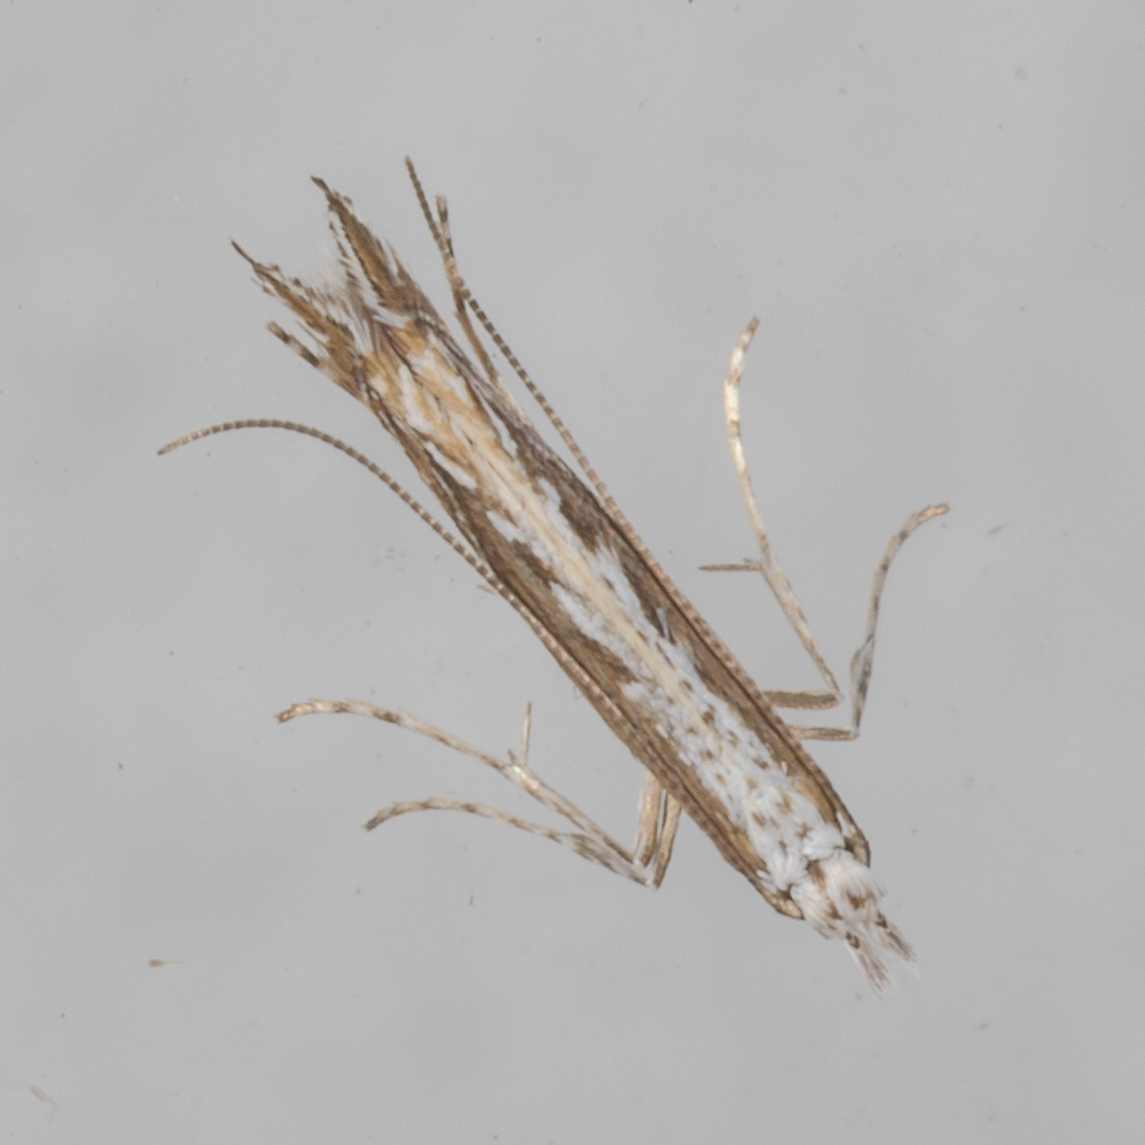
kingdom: Plantae
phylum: Rhodophyta
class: Florideophyceae
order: Gracilariales
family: Gracilariaceae
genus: Gracilaria
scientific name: Gracilaria
